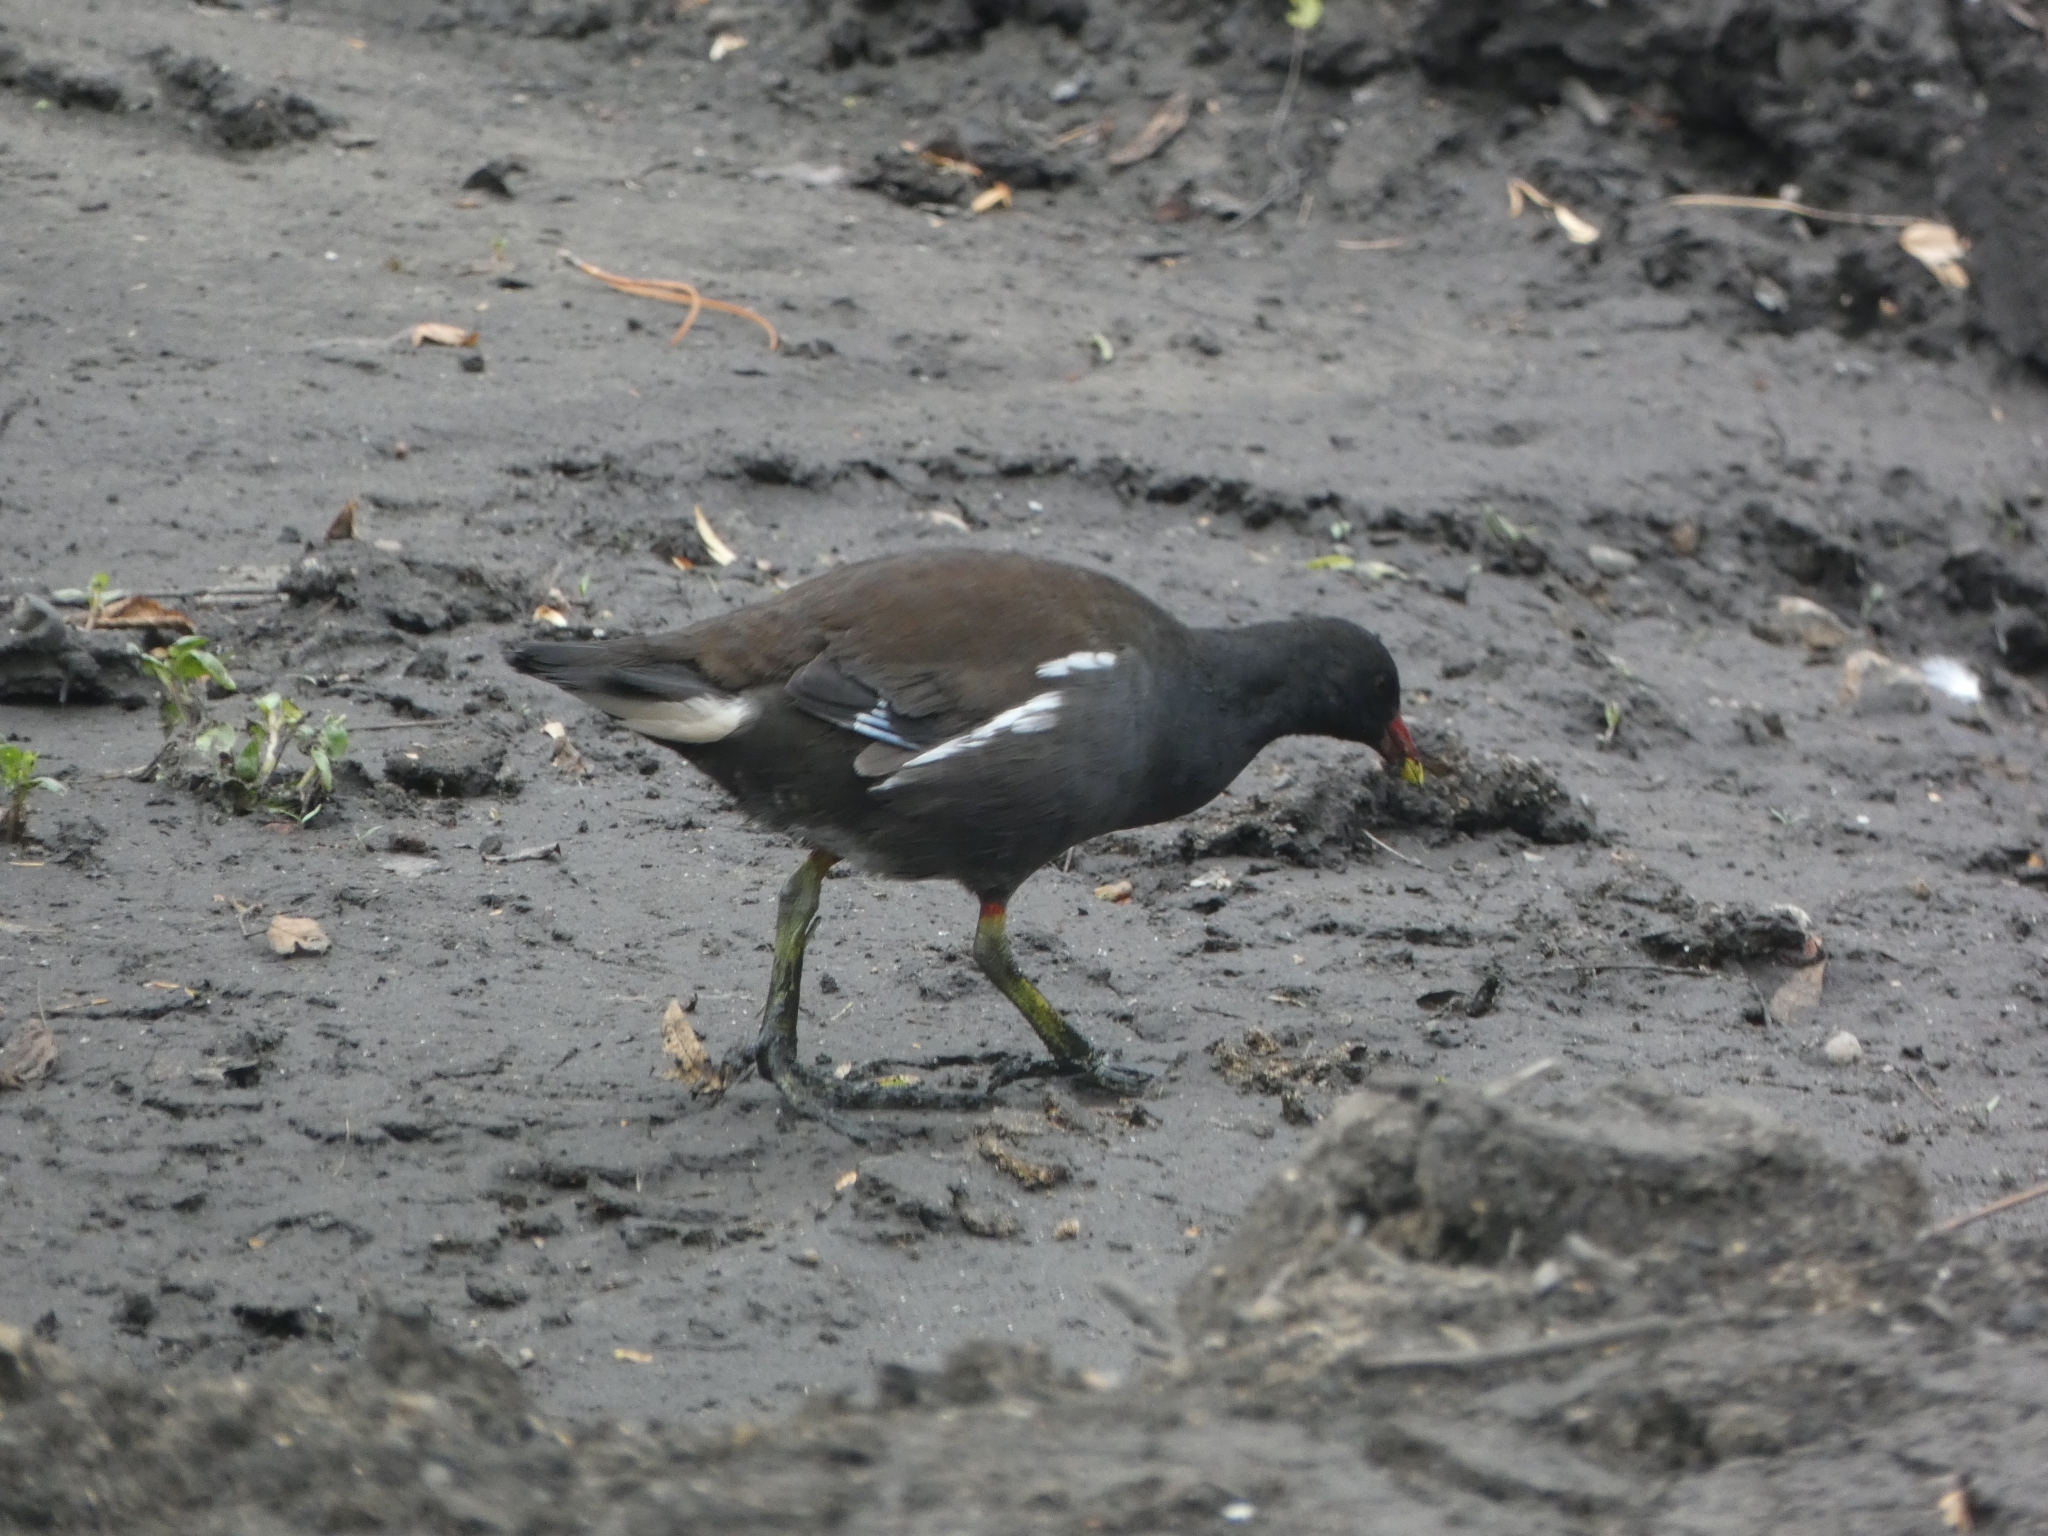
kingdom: Animalia
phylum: Chordata
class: Aves
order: Gruiformes
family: Rallidae
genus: Gallinula
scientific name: Gallinula chloropus
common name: Common moorhen
